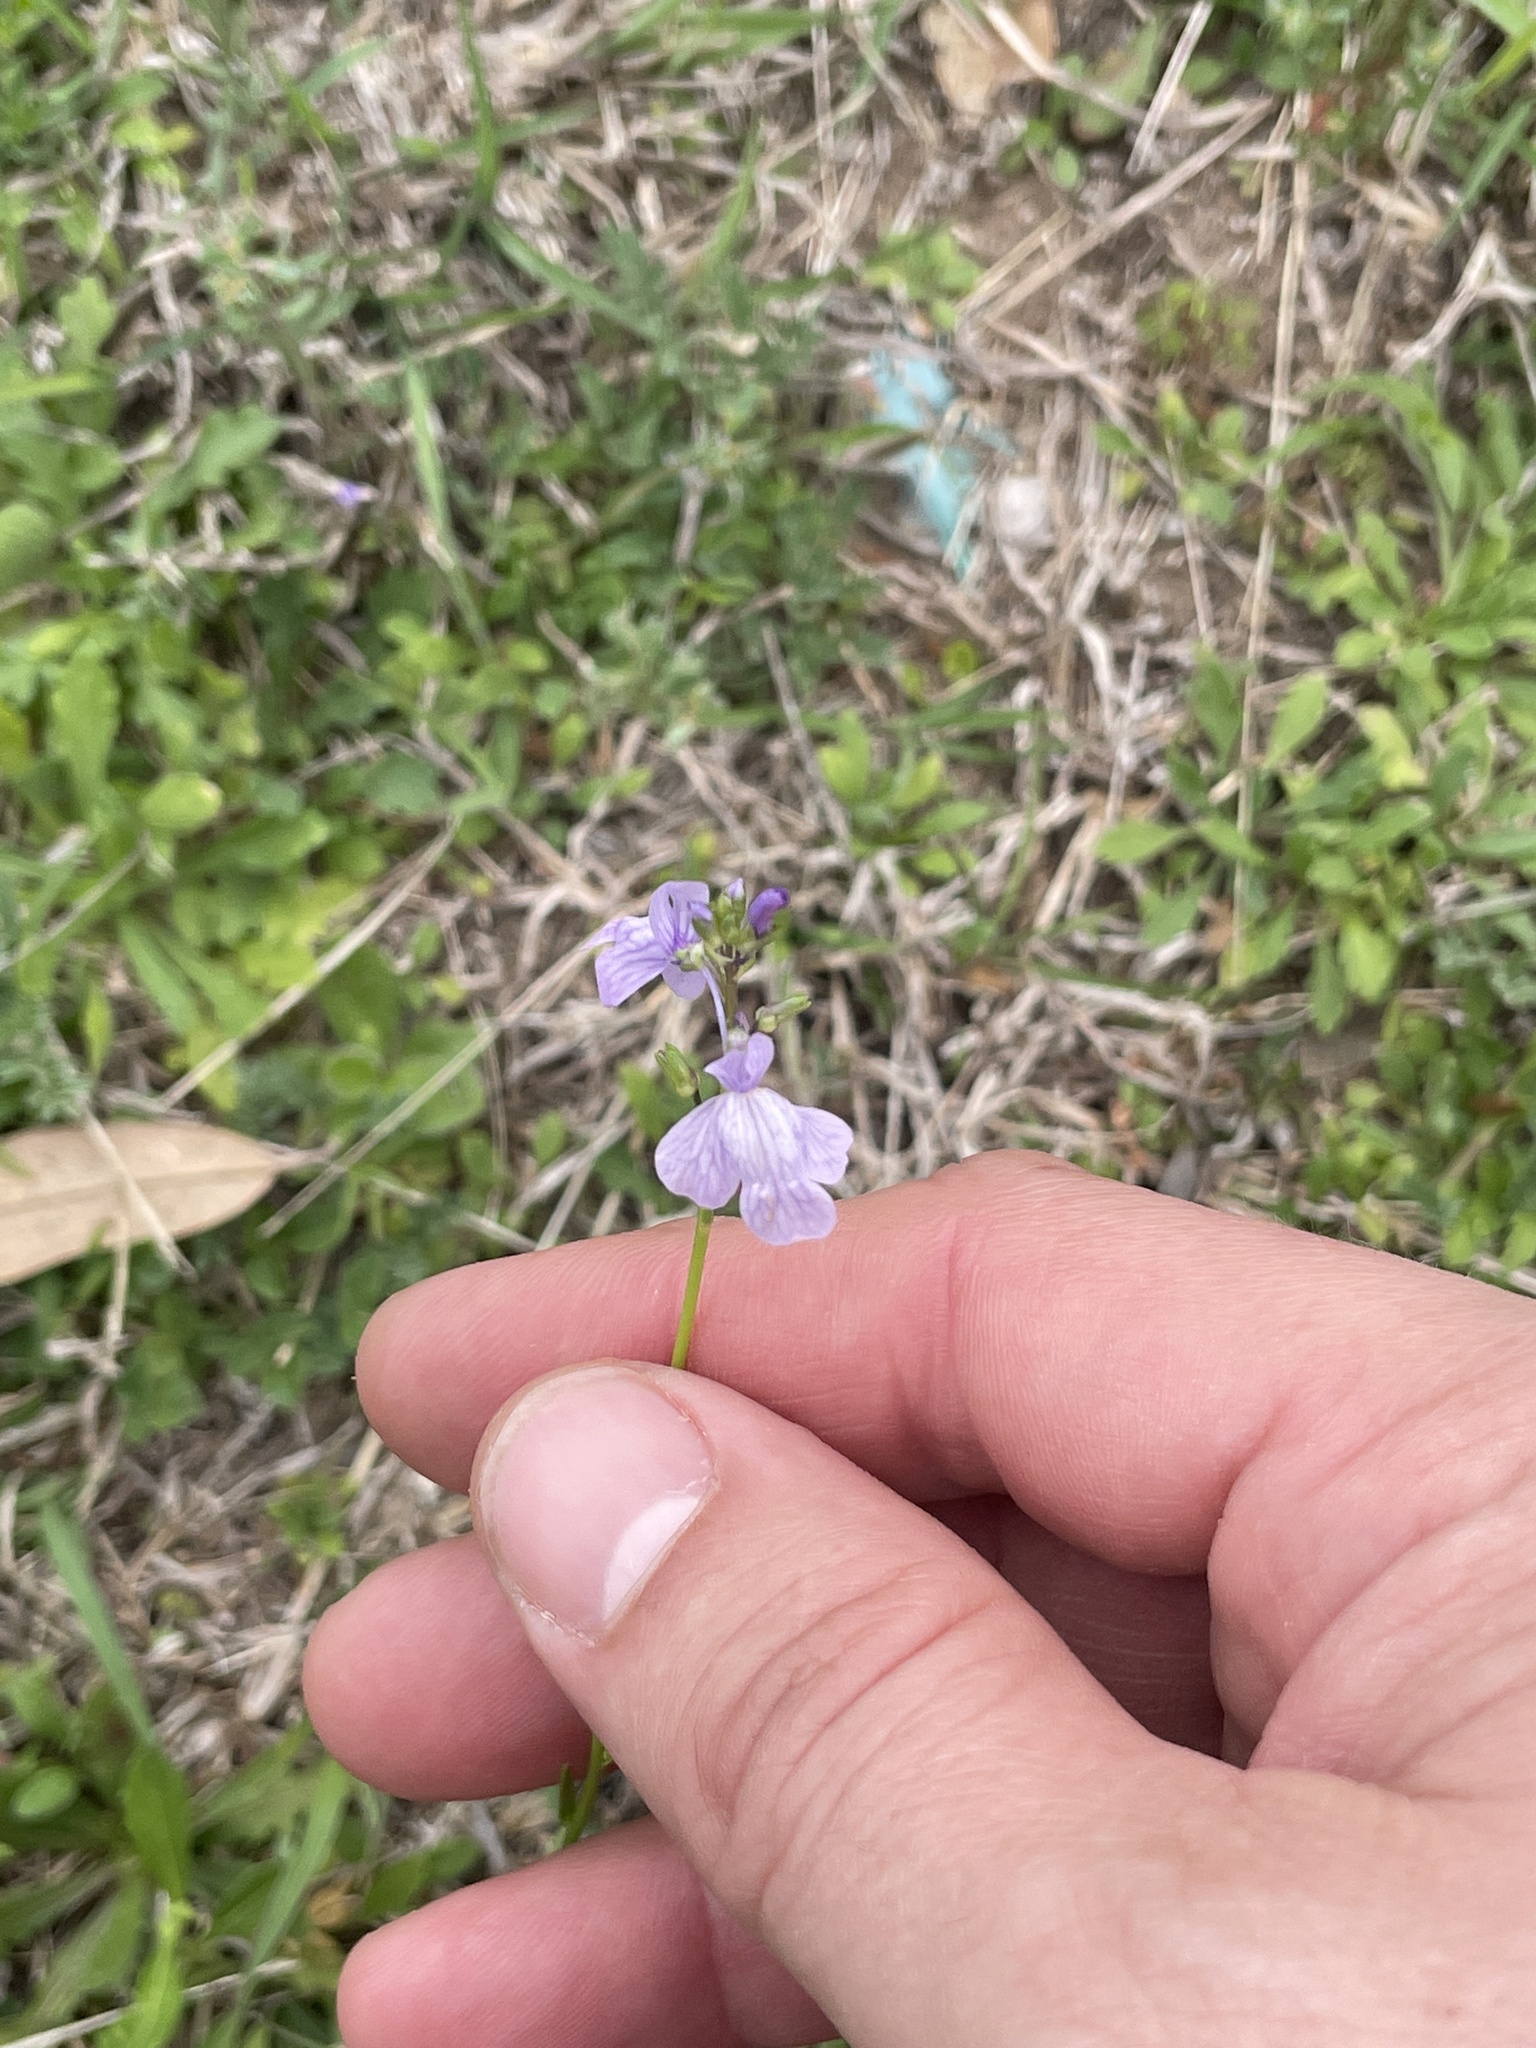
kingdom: Plantae
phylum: Tracheophyta
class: Magnoliopsida
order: Lamiales
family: Plantaginaceae
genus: Nuttallanthus
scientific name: Nuttallanthus texanus
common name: Texas toadflax
